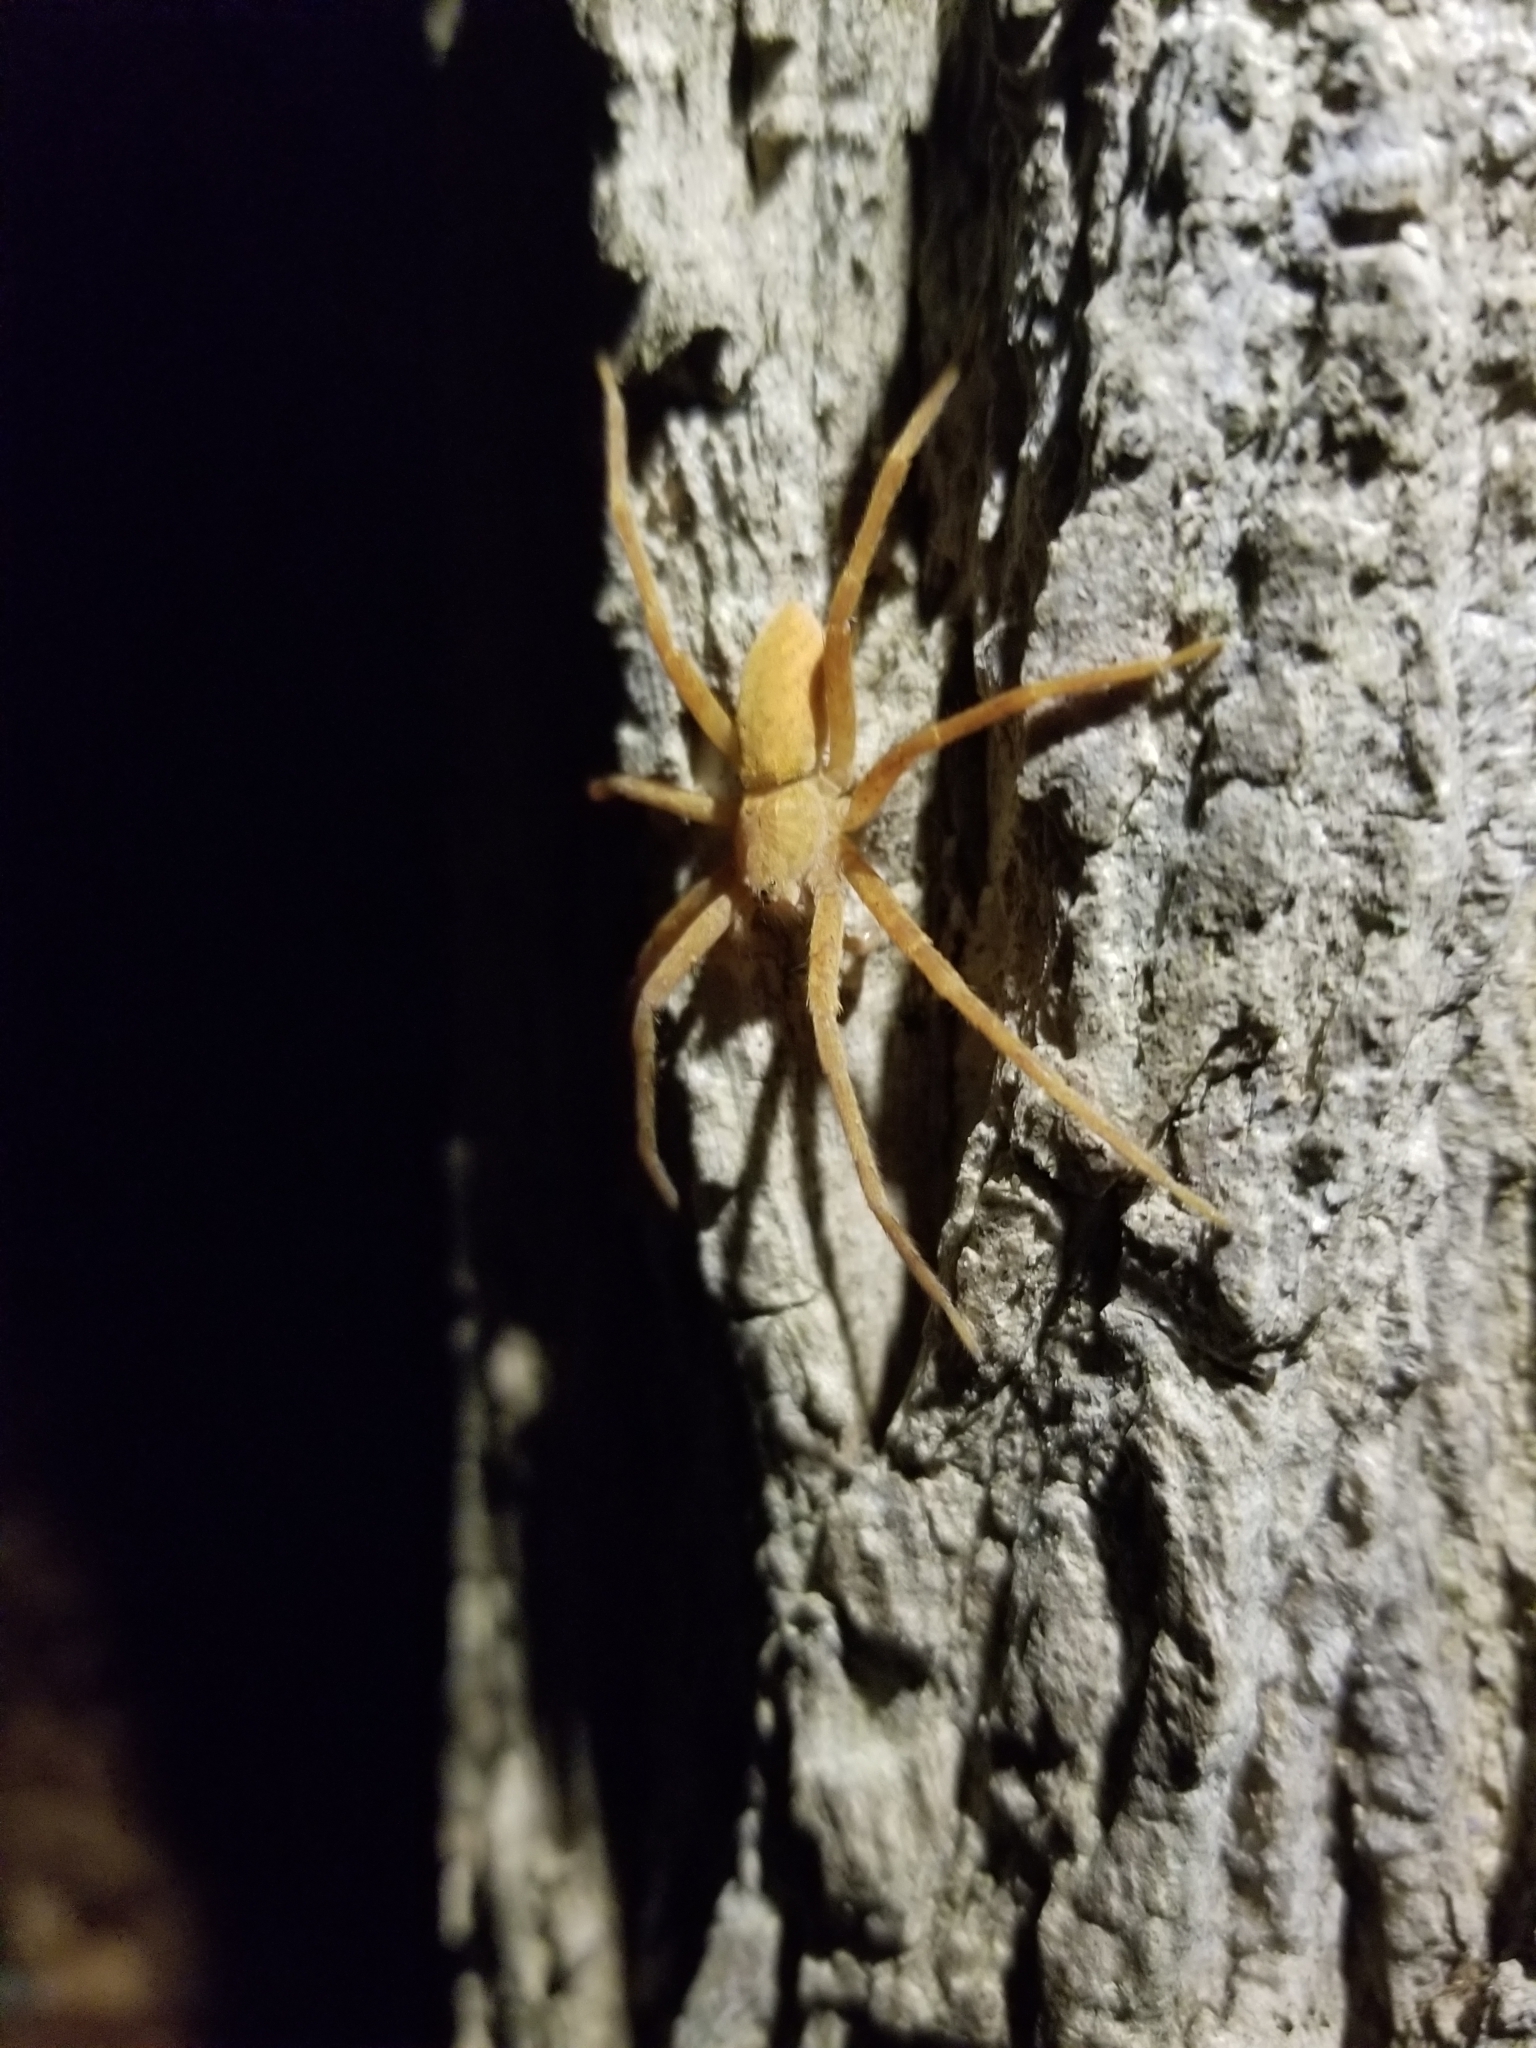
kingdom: Animalia
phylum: Arthropoda
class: Arachnida
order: Araneae
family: Pisauridae
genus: Pisaurina
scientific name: Pisaurina mira
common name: American nursery web spider
